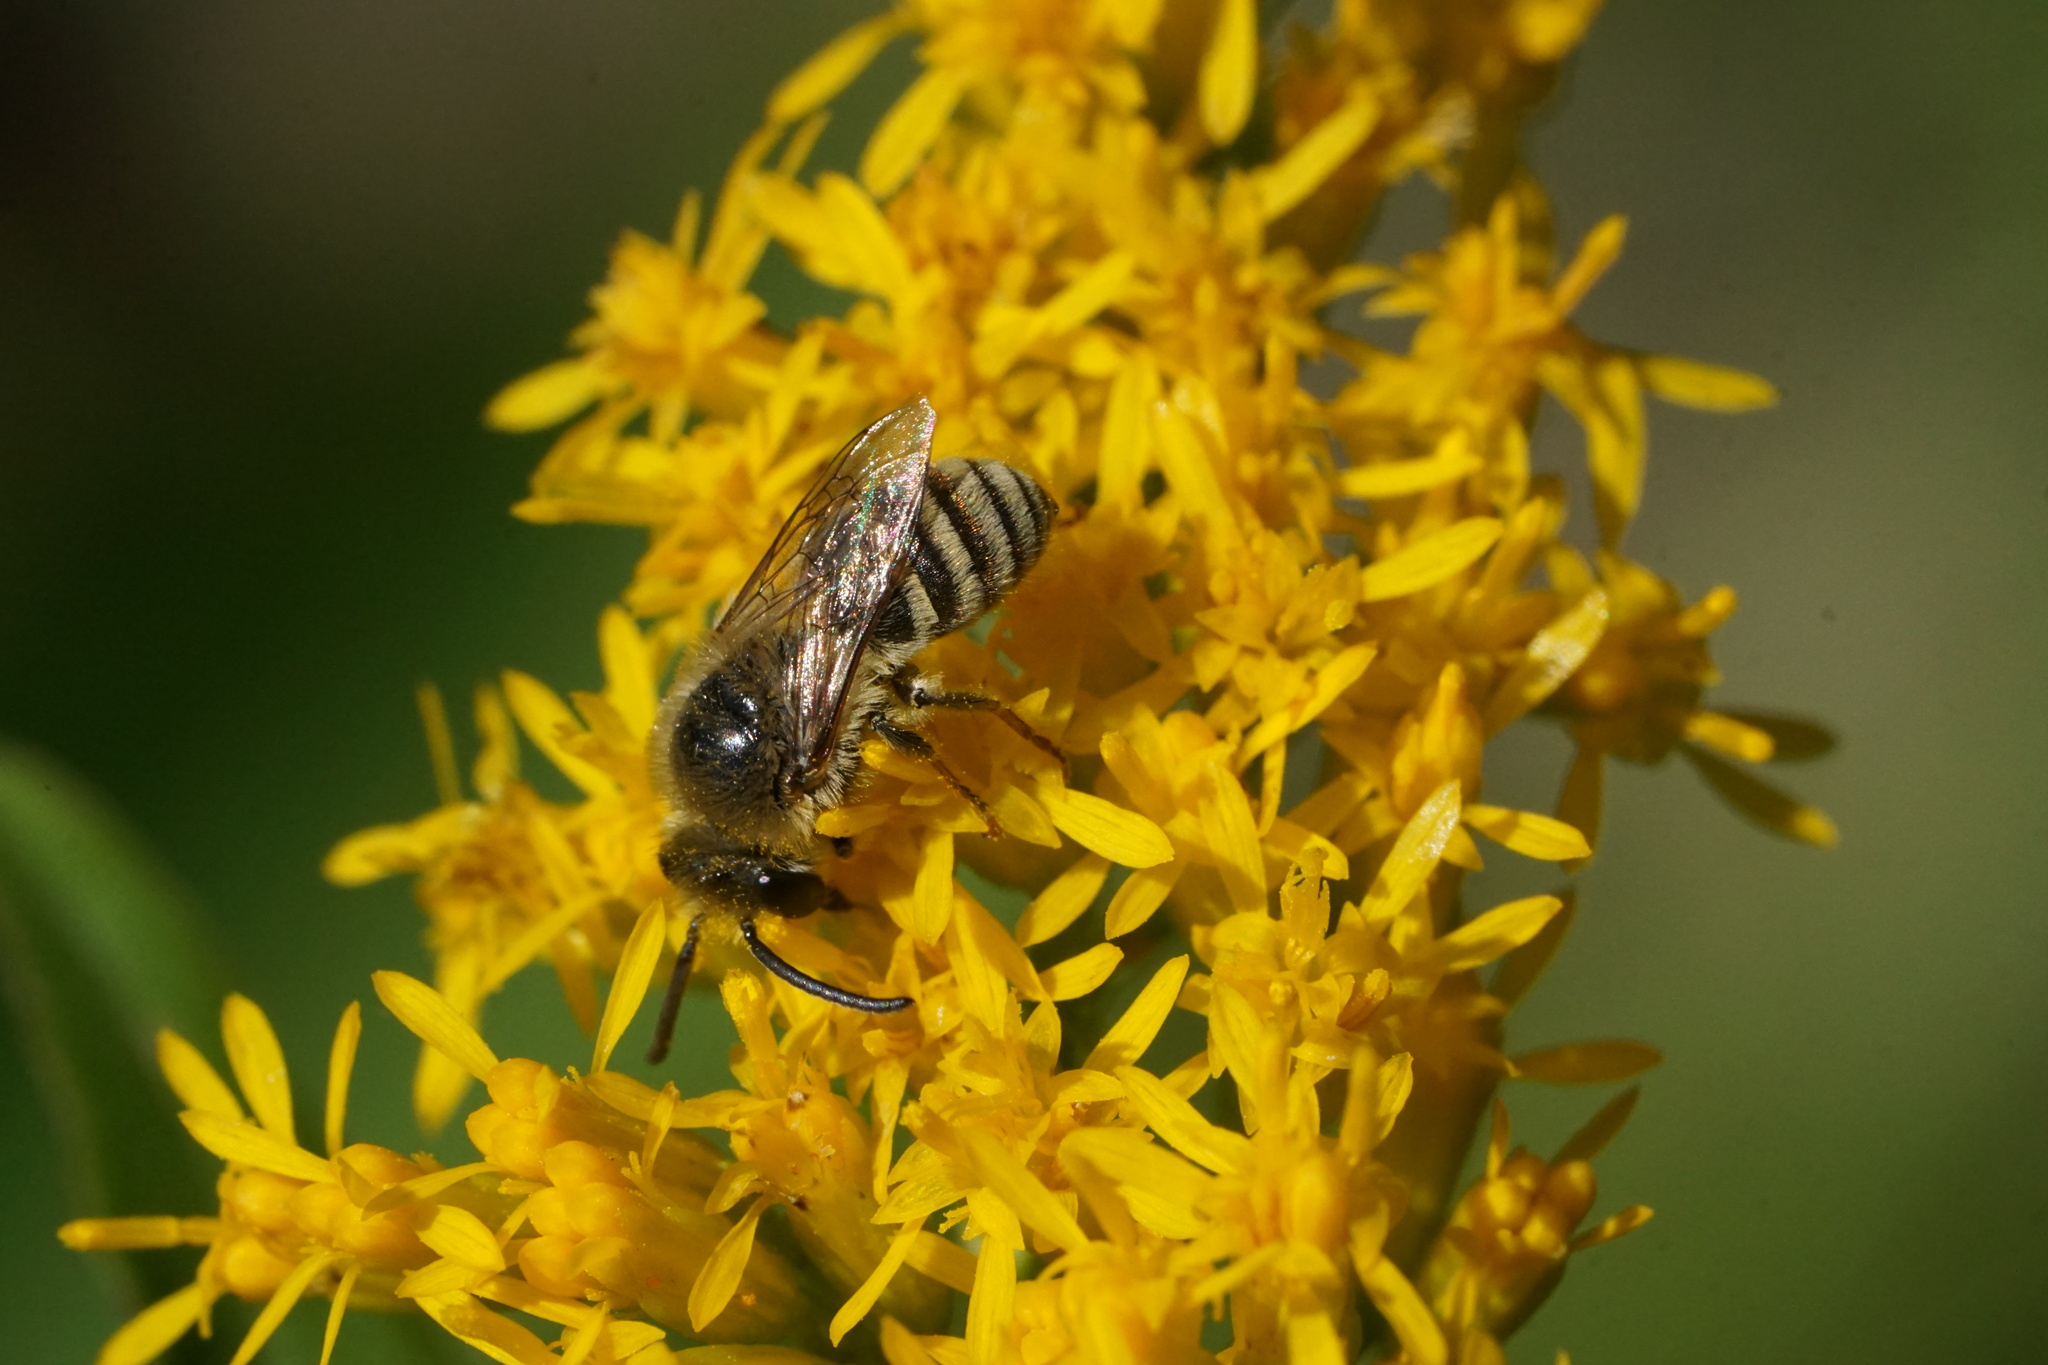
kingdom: Animalia
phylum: Arthropoda
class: Insecta
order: Hymenoptera
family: Colletidae
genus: Colletes
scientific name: Colletes solidaginis
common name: Goldenrod cellophane bee
